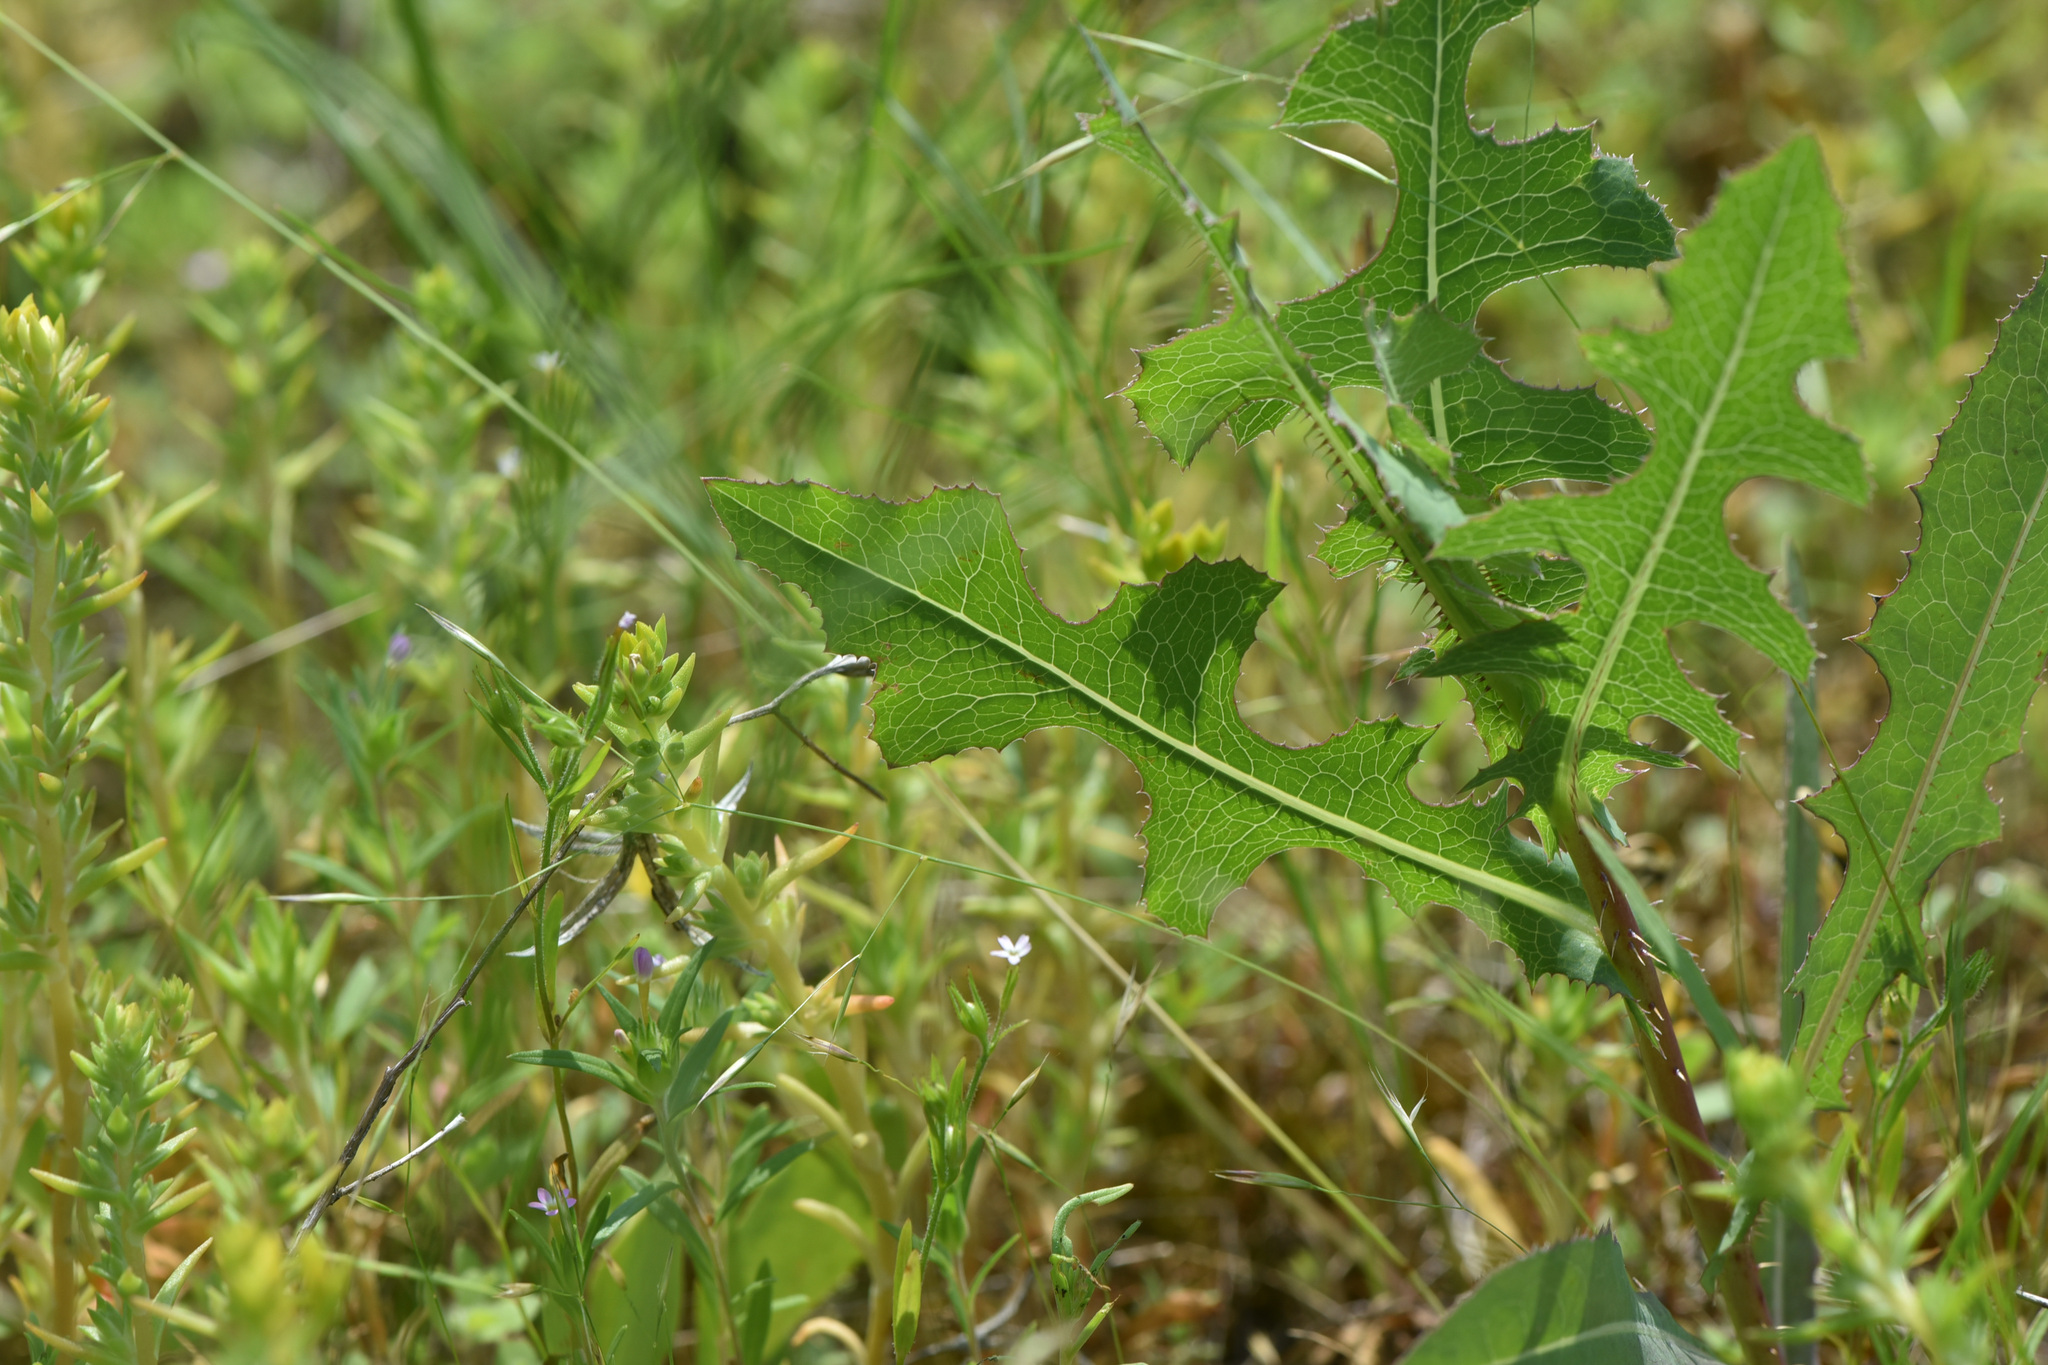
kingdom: Plantae
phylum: Tracheophyta
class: Magnoliopsida
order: Asterales
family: Asteraceae
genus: Lactuca
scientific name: Lactuca serriola
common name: Prickly lettuce
